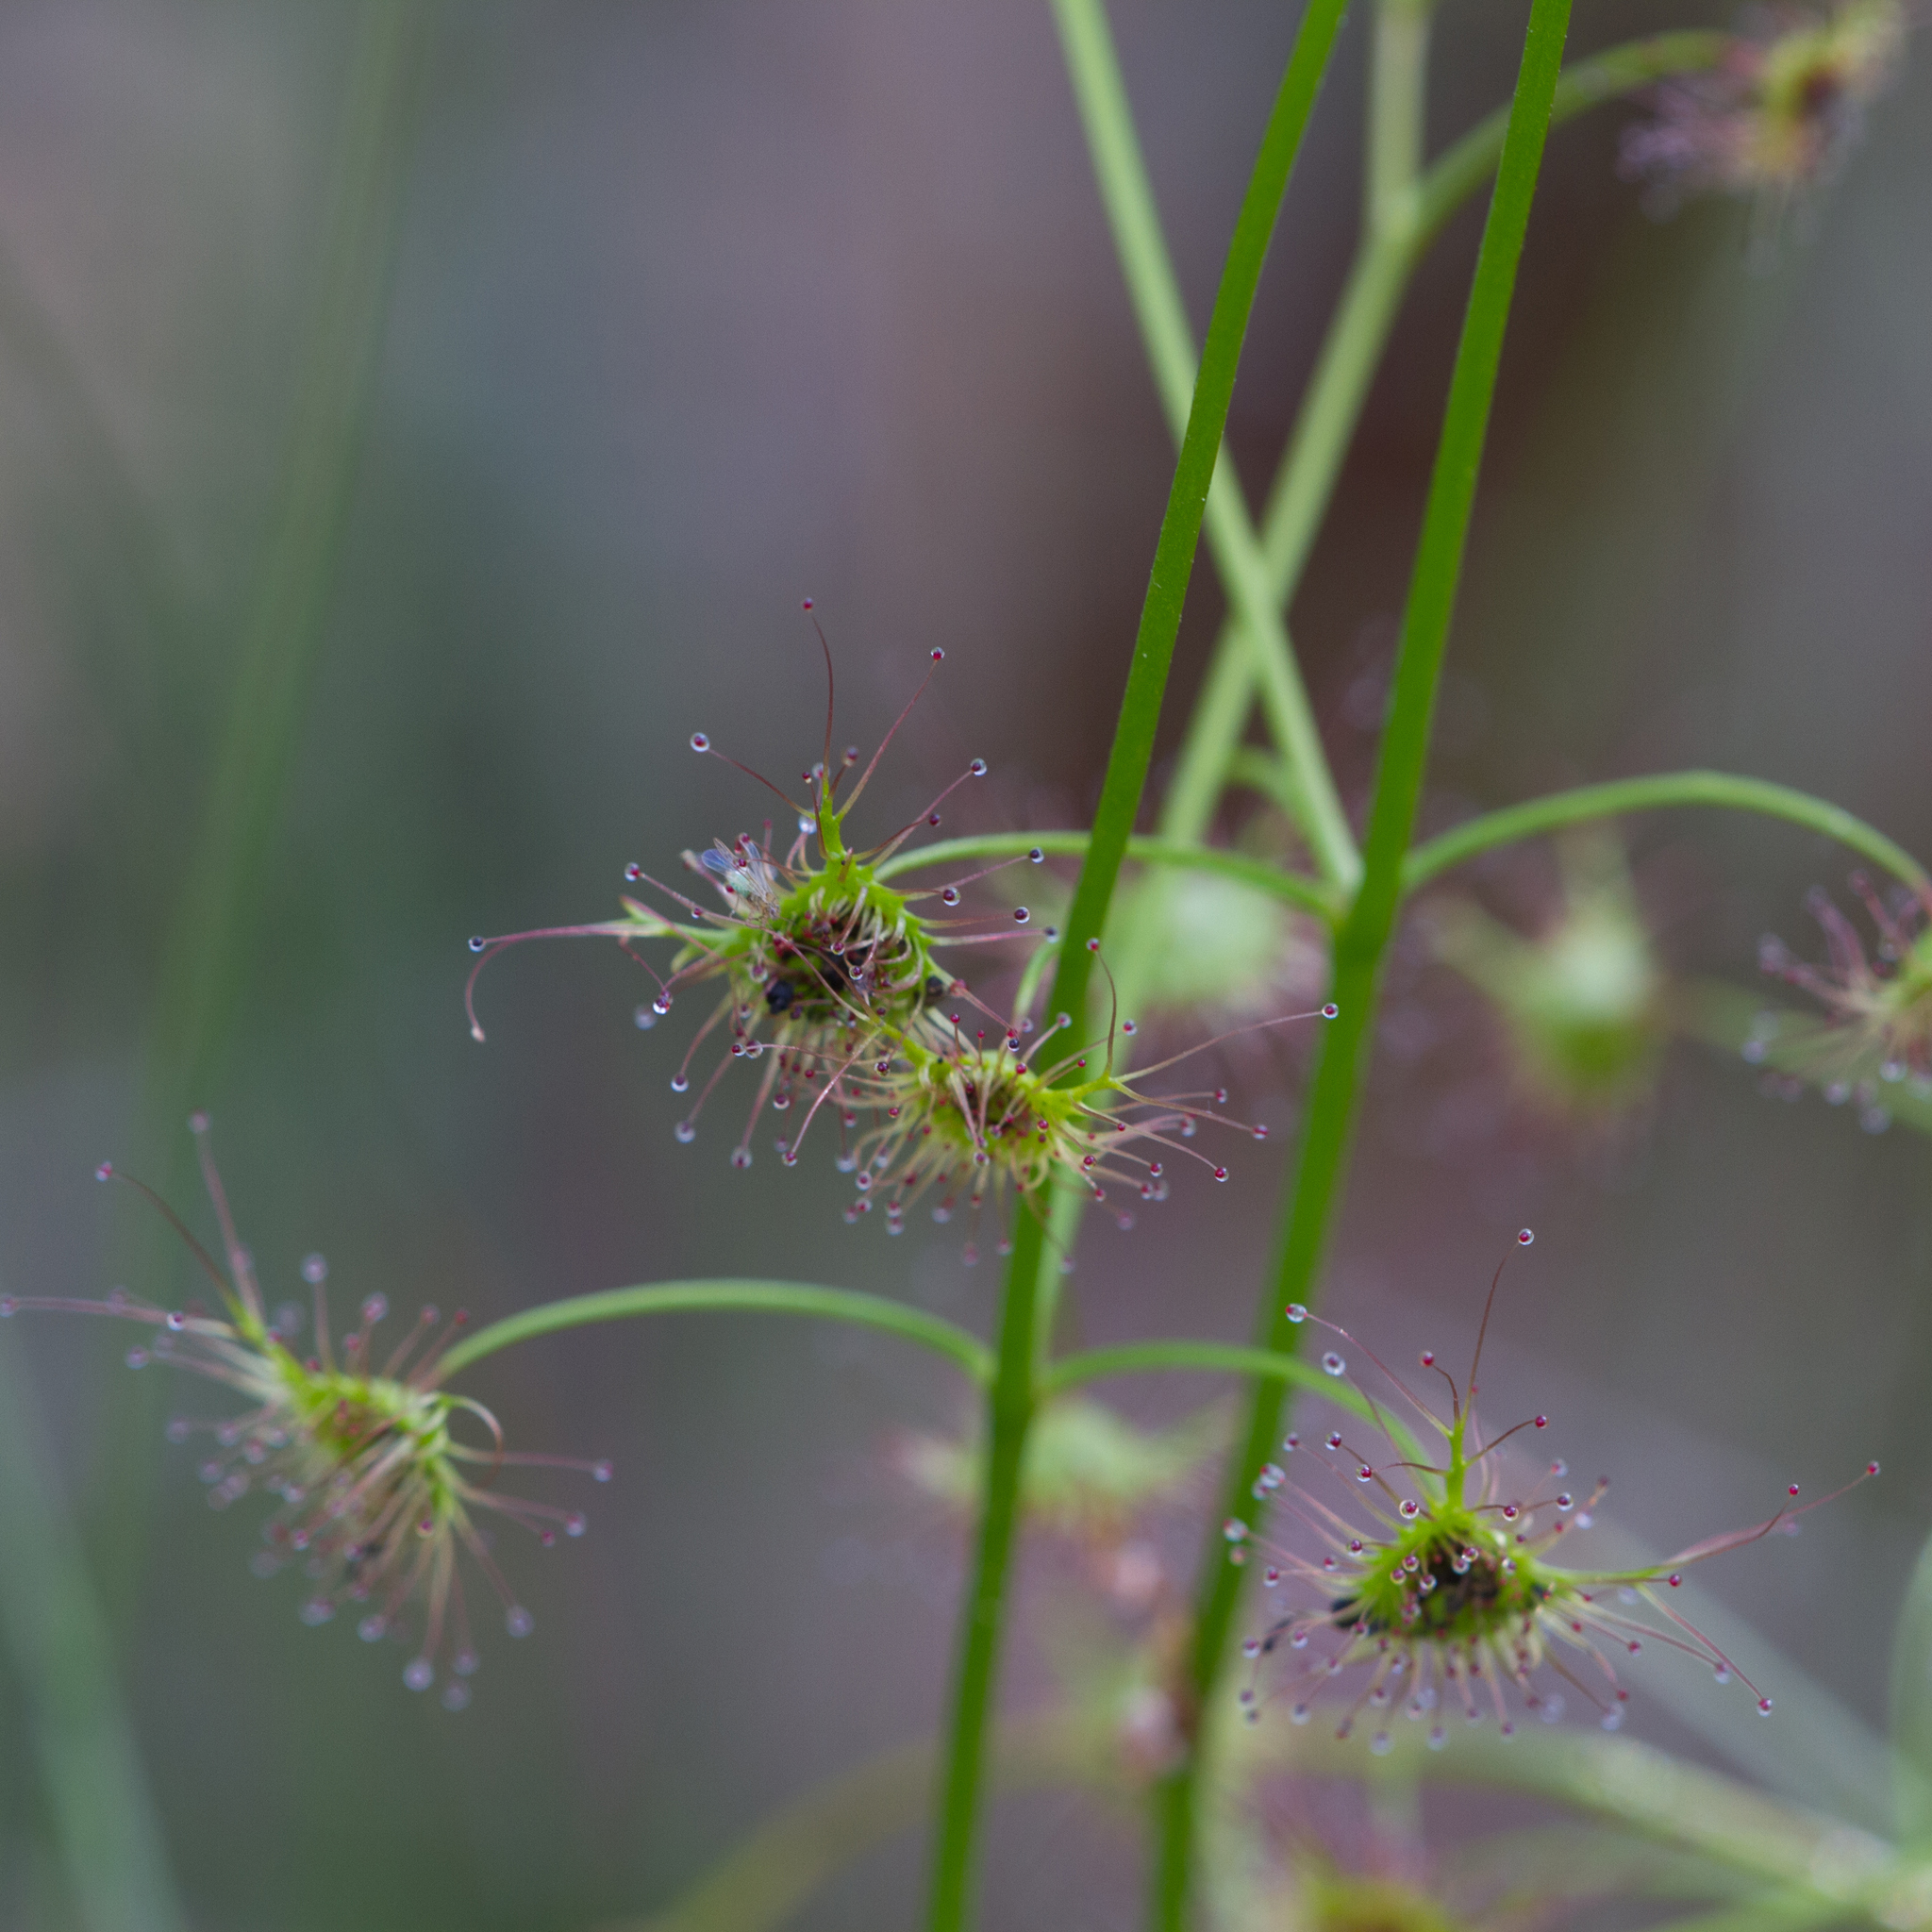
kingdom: Plantae
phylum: Tracheophyta
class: Magnoliopsida
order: Caryophyllales
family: Droseraceae
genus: Drosera
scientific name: Drosera peltata
